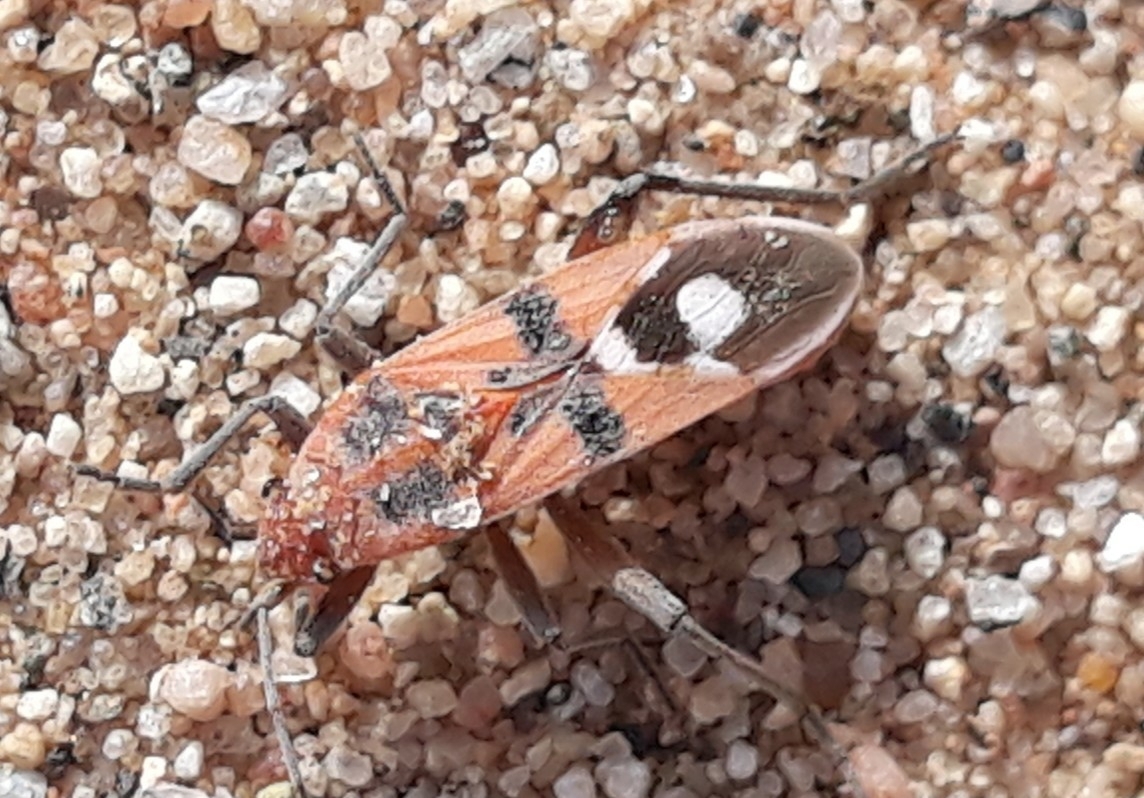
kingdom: Animalia
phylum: Arthropoda
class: Insecta
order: Hemiptera
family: Lygaeidae
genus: Spilostethus
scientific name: Spilostethus longulus
